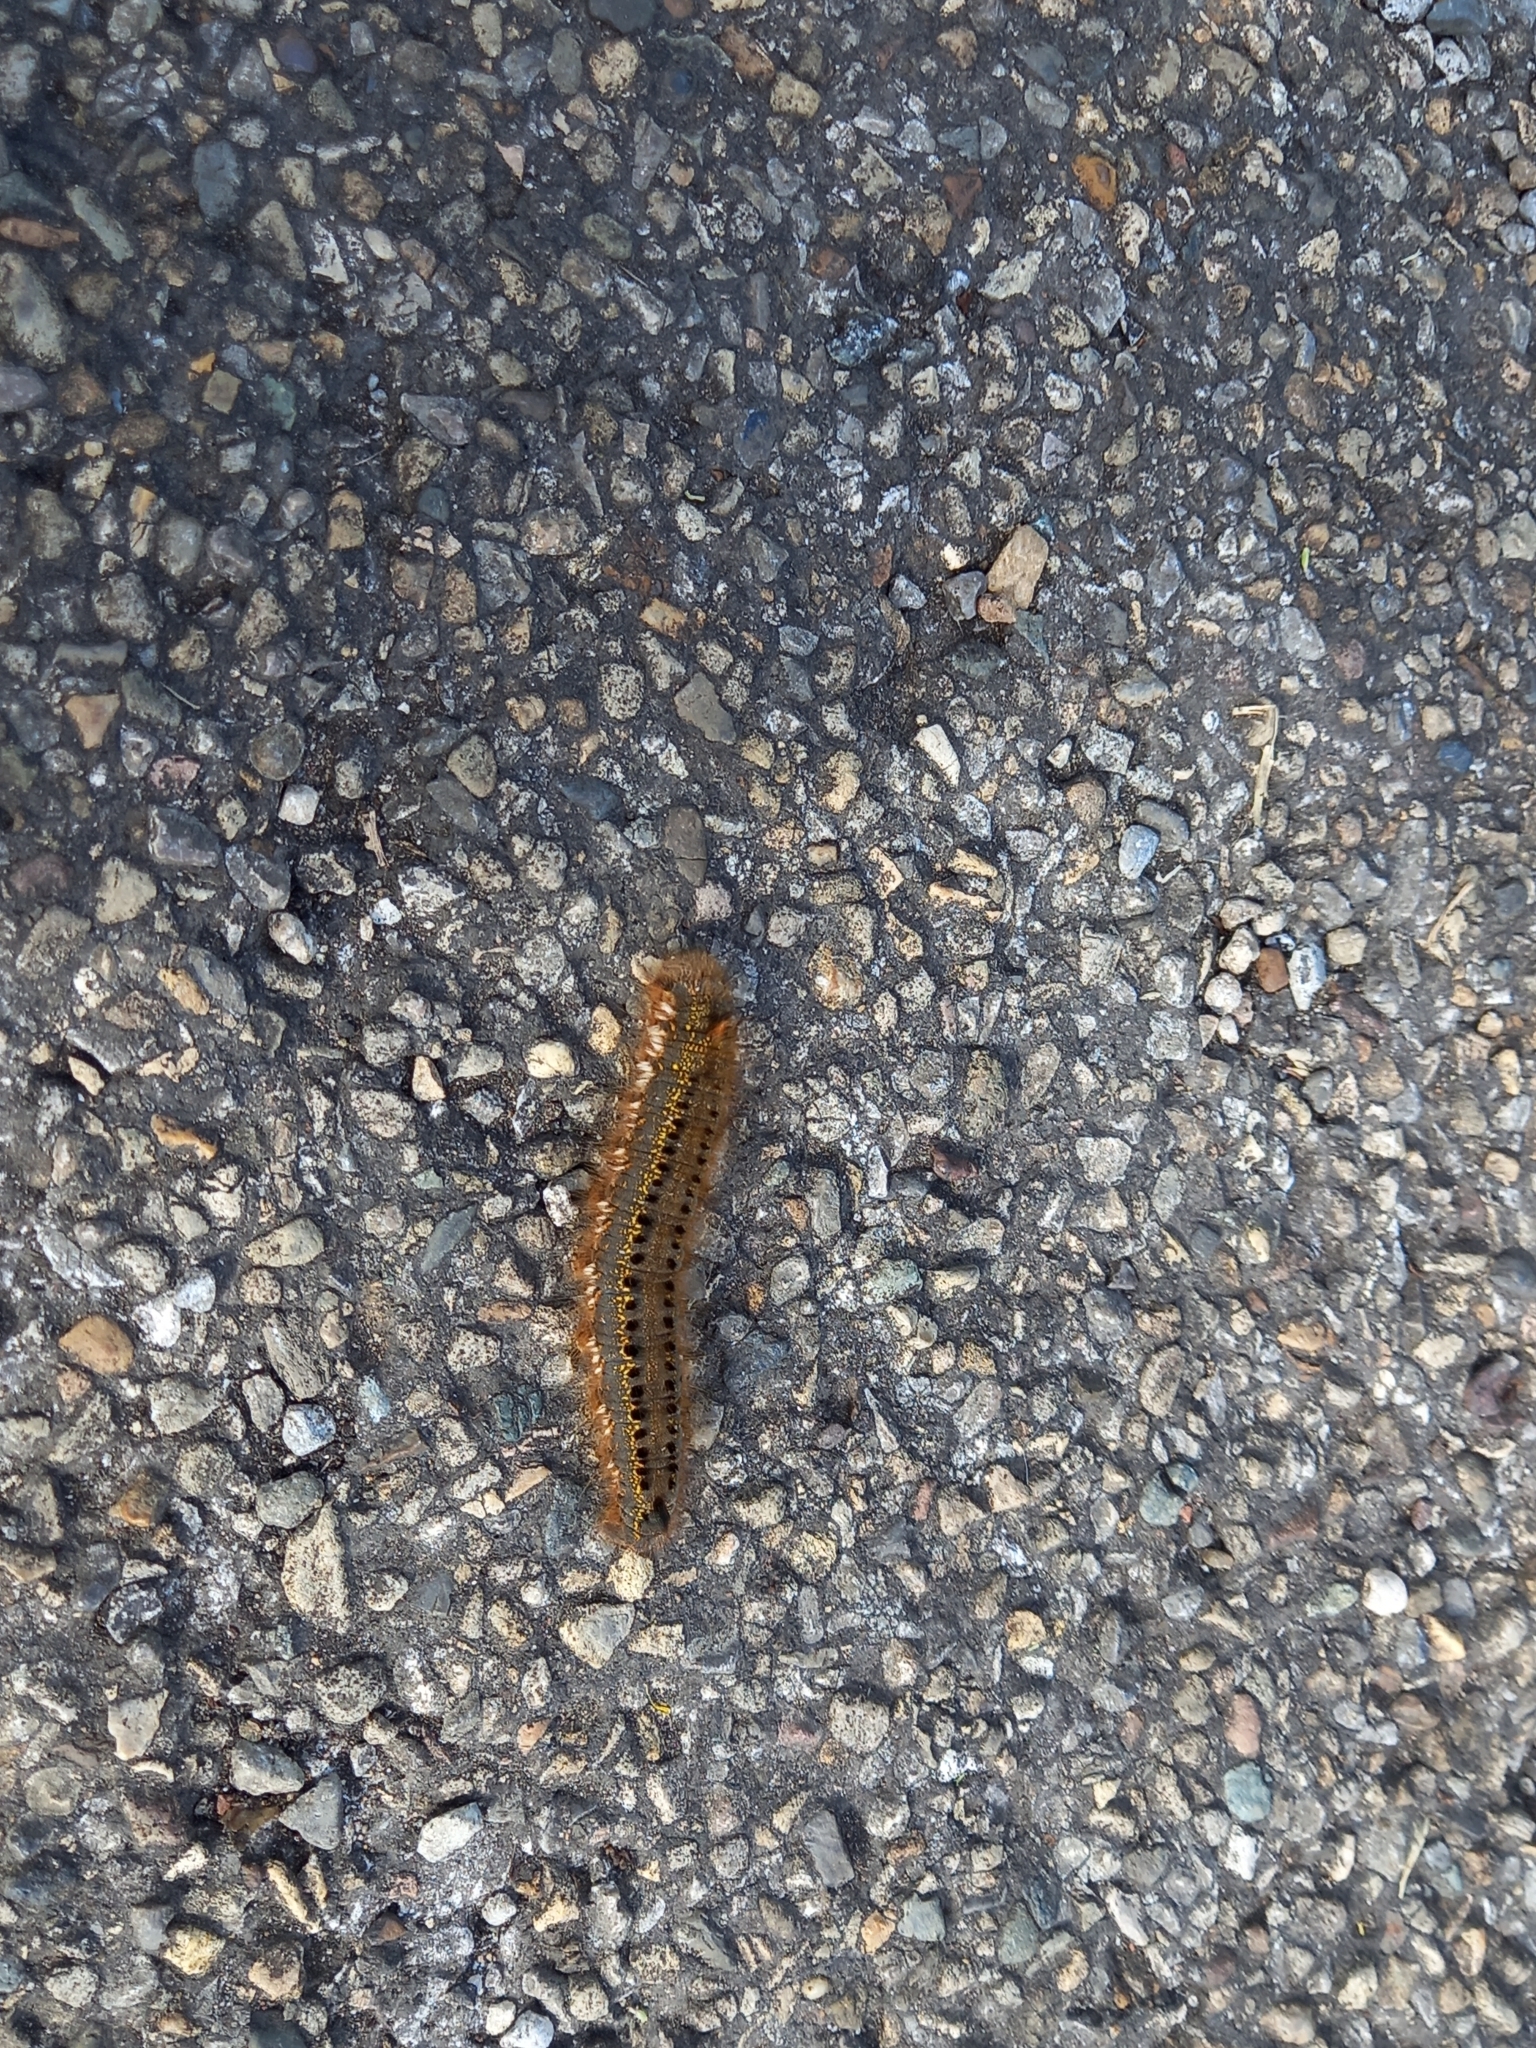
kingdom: Animalia
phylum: Arthropoda
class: Insecta
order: Lepidoptera
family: Lasiocampidae
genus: Euthrix
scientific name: Euthrix potatoria
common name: Drinker
